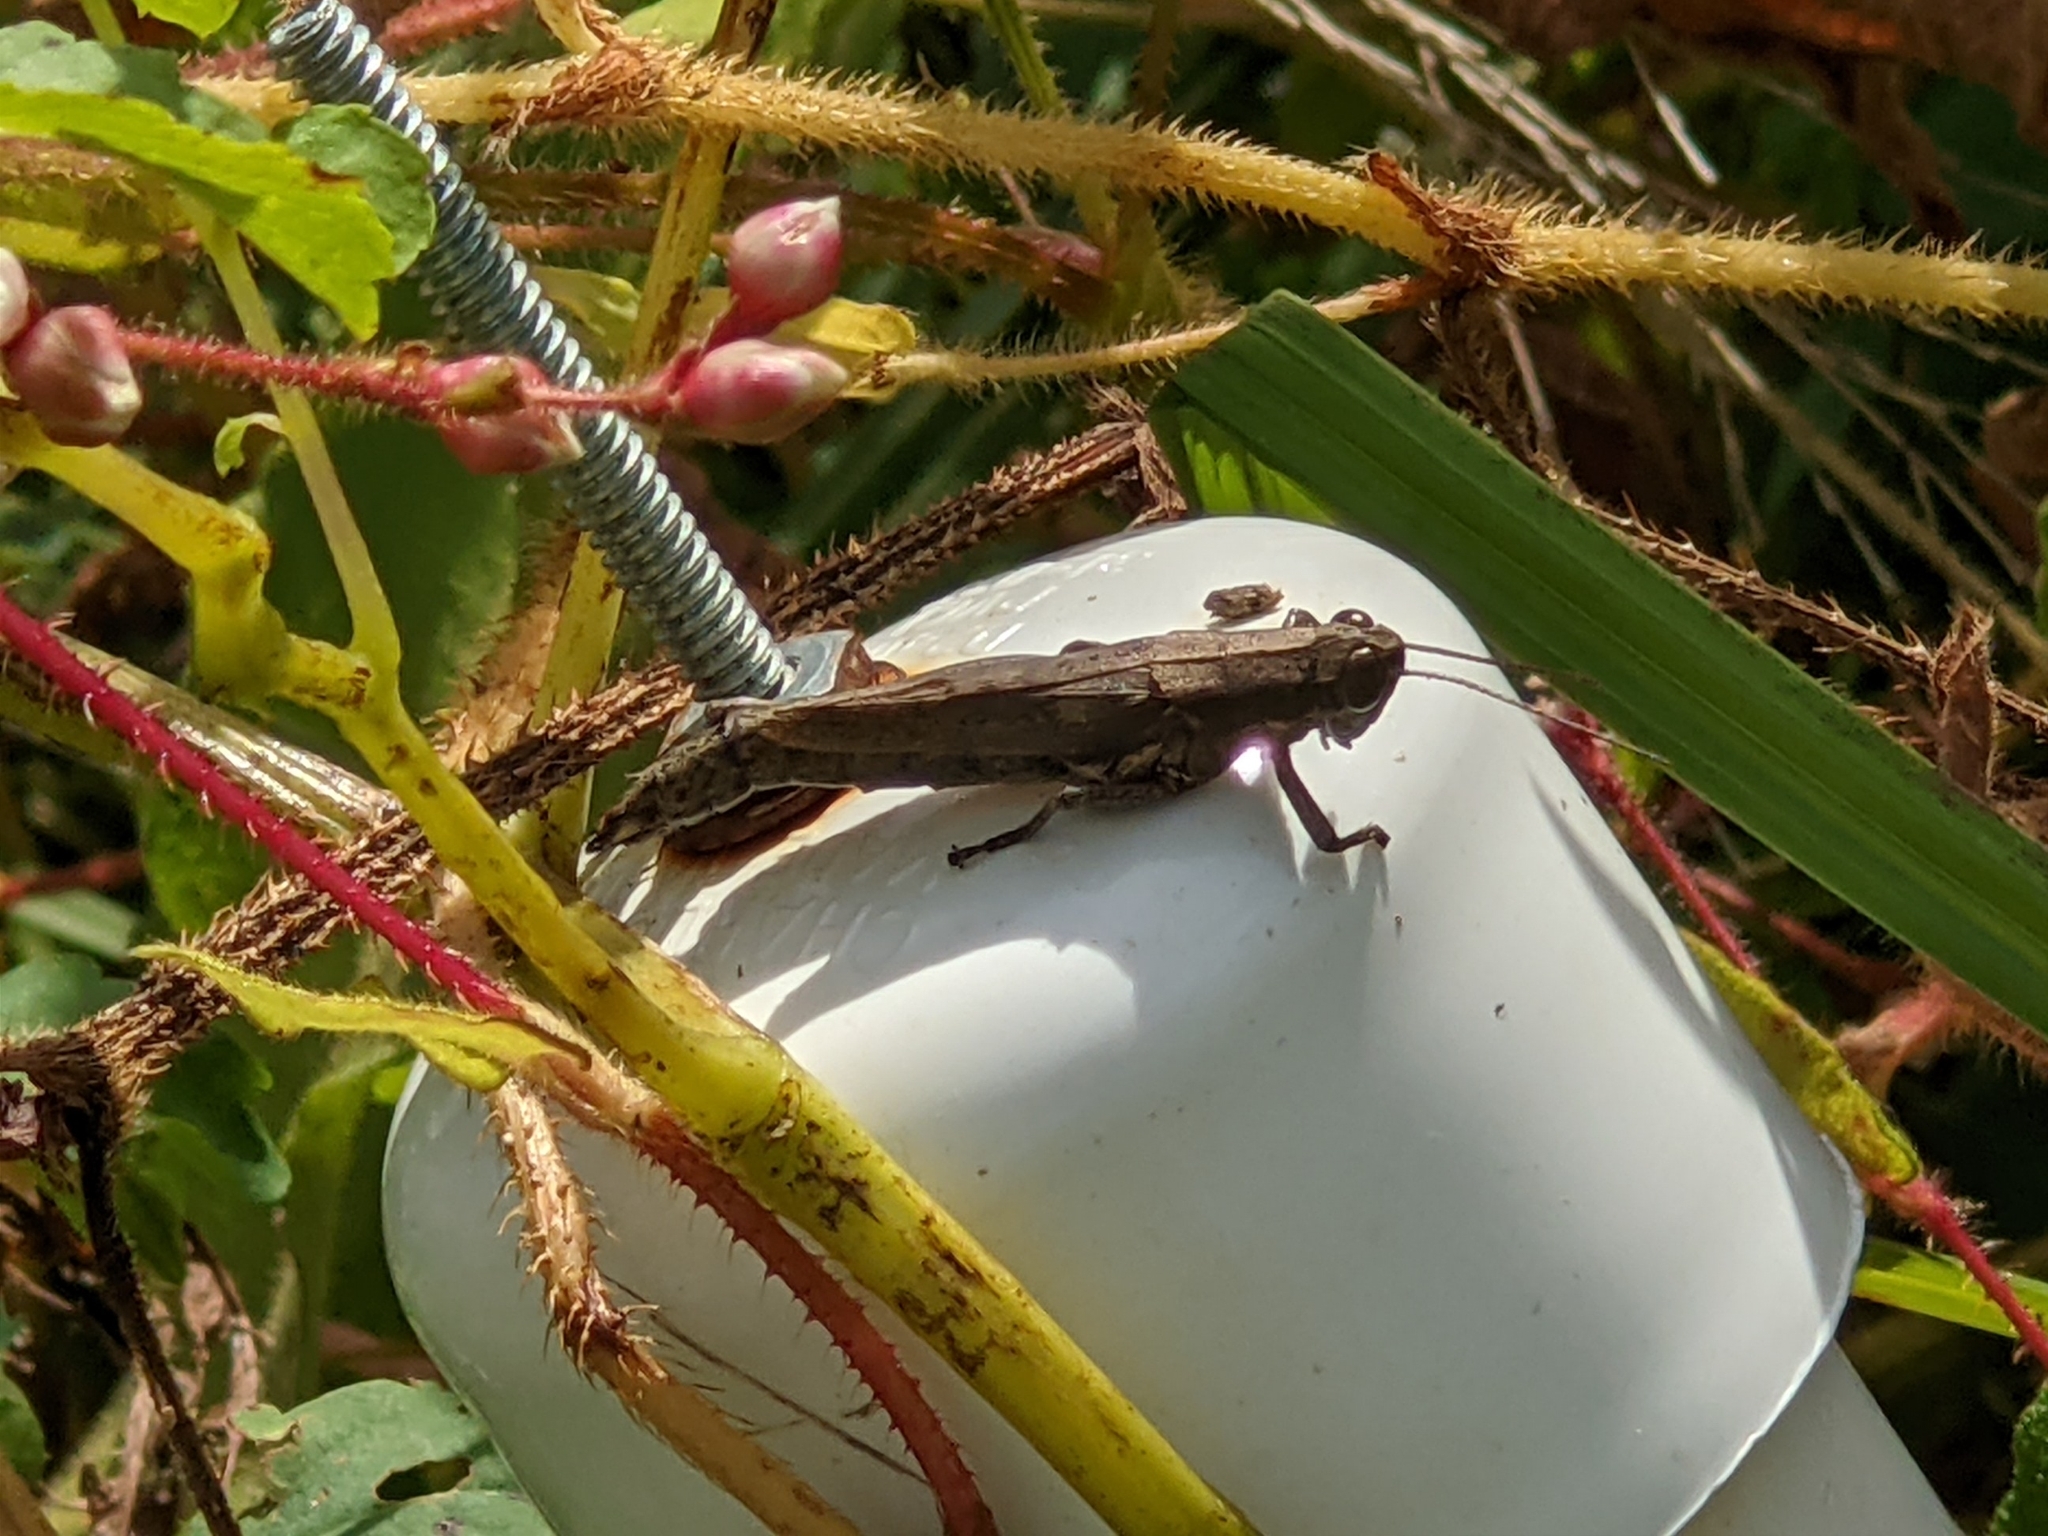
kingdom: Animalia
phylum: Arthropoda
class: Insecta
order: Orthoptera
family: Acrididae
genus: Paroxya
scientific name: Paroxya clavuligera
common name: Olive-green swamp grasshopper
